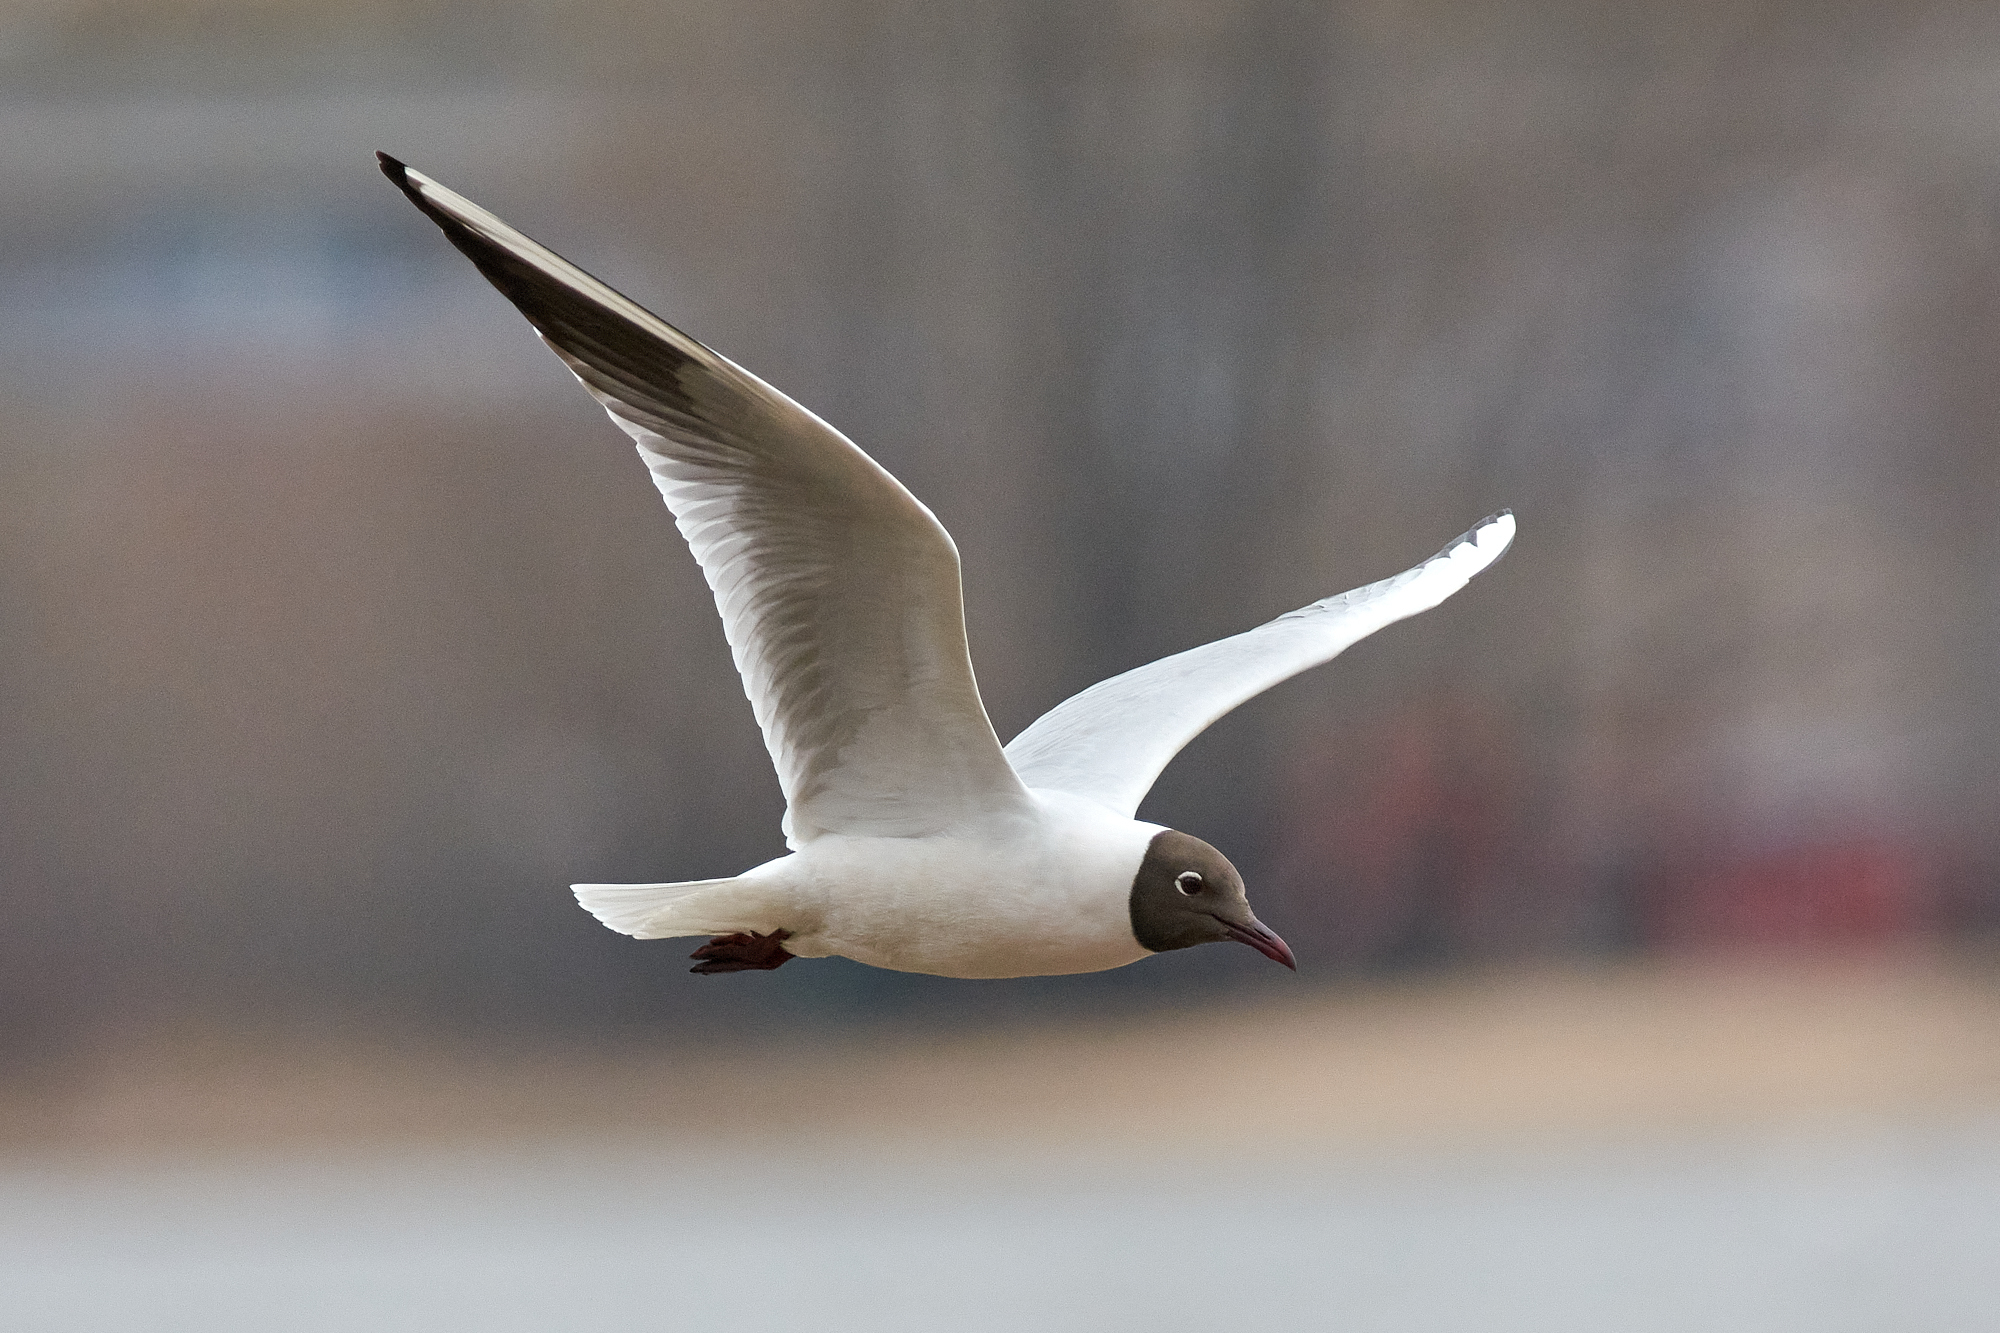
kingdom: Animalia
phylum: Chordata
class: Aves
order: Charadriiformes
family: Laridae
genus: Chroicocephalus
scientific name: Chroicocephalus ridibundus
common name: Black-headed gull
